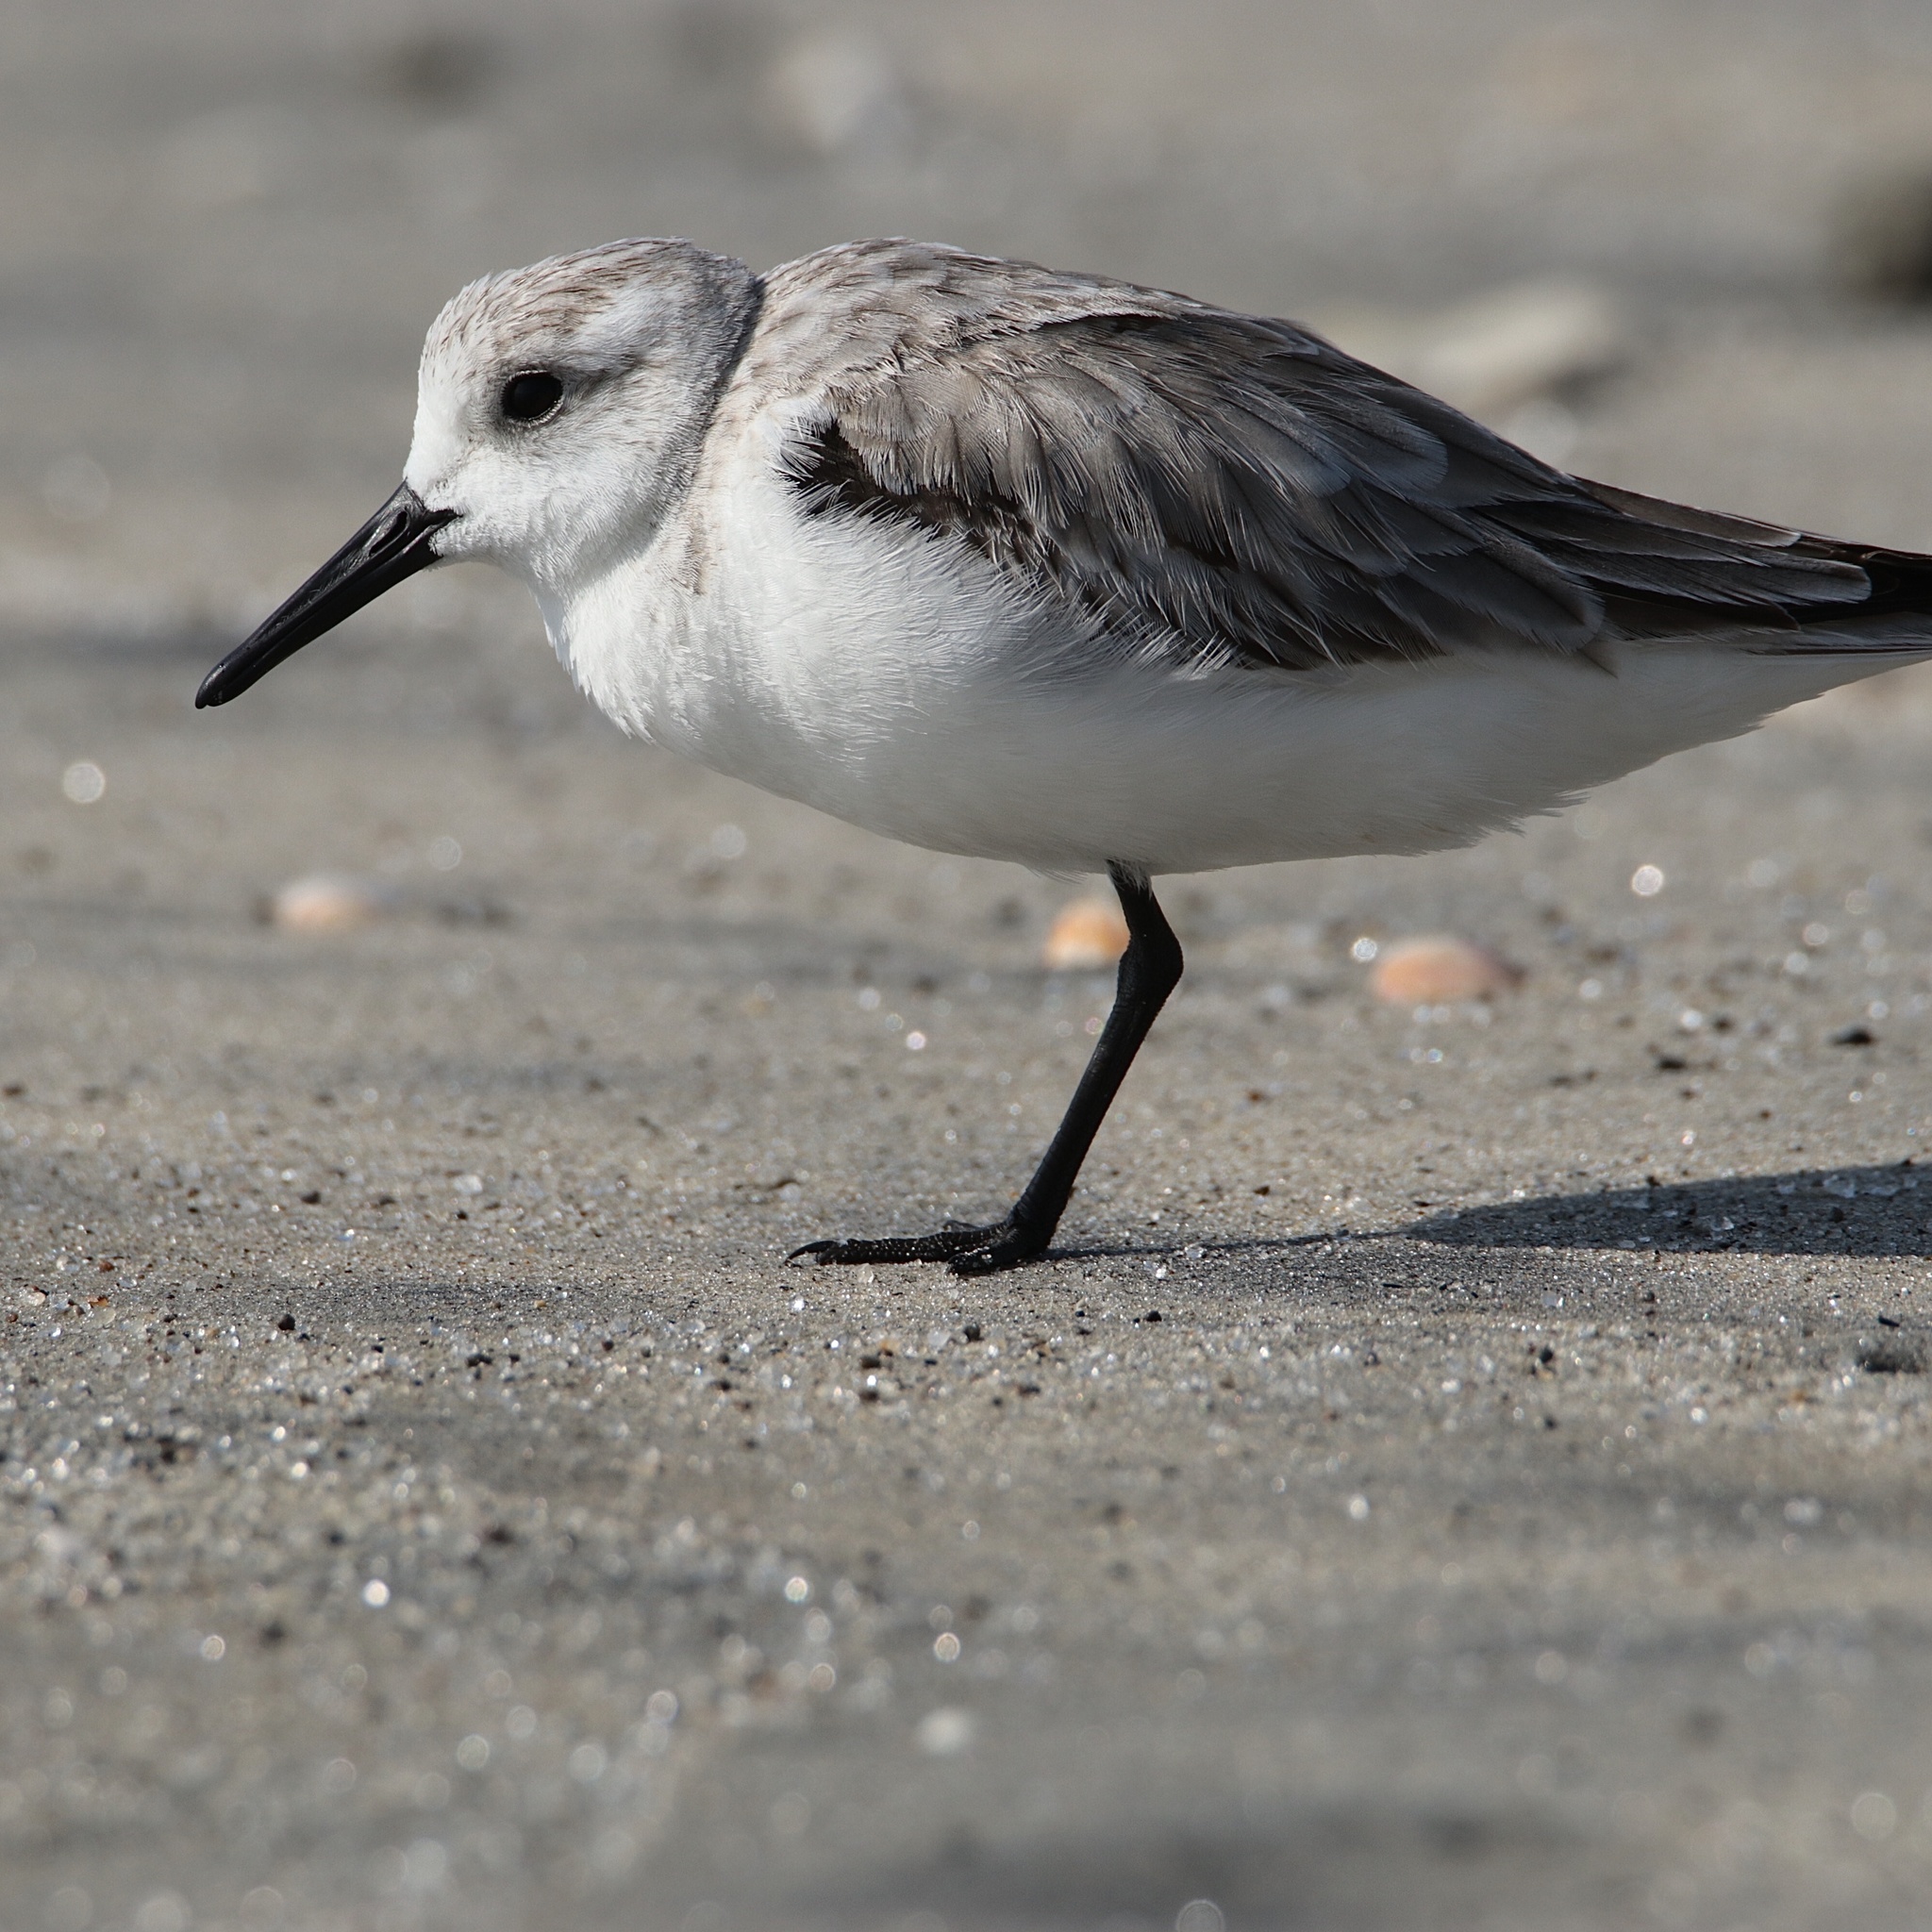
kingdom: Animalia
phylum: Chordata
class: Aves
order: Charadriiformes
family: Scolopacidae
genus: Calidris
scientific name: Calidris alba
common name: Sanderling
